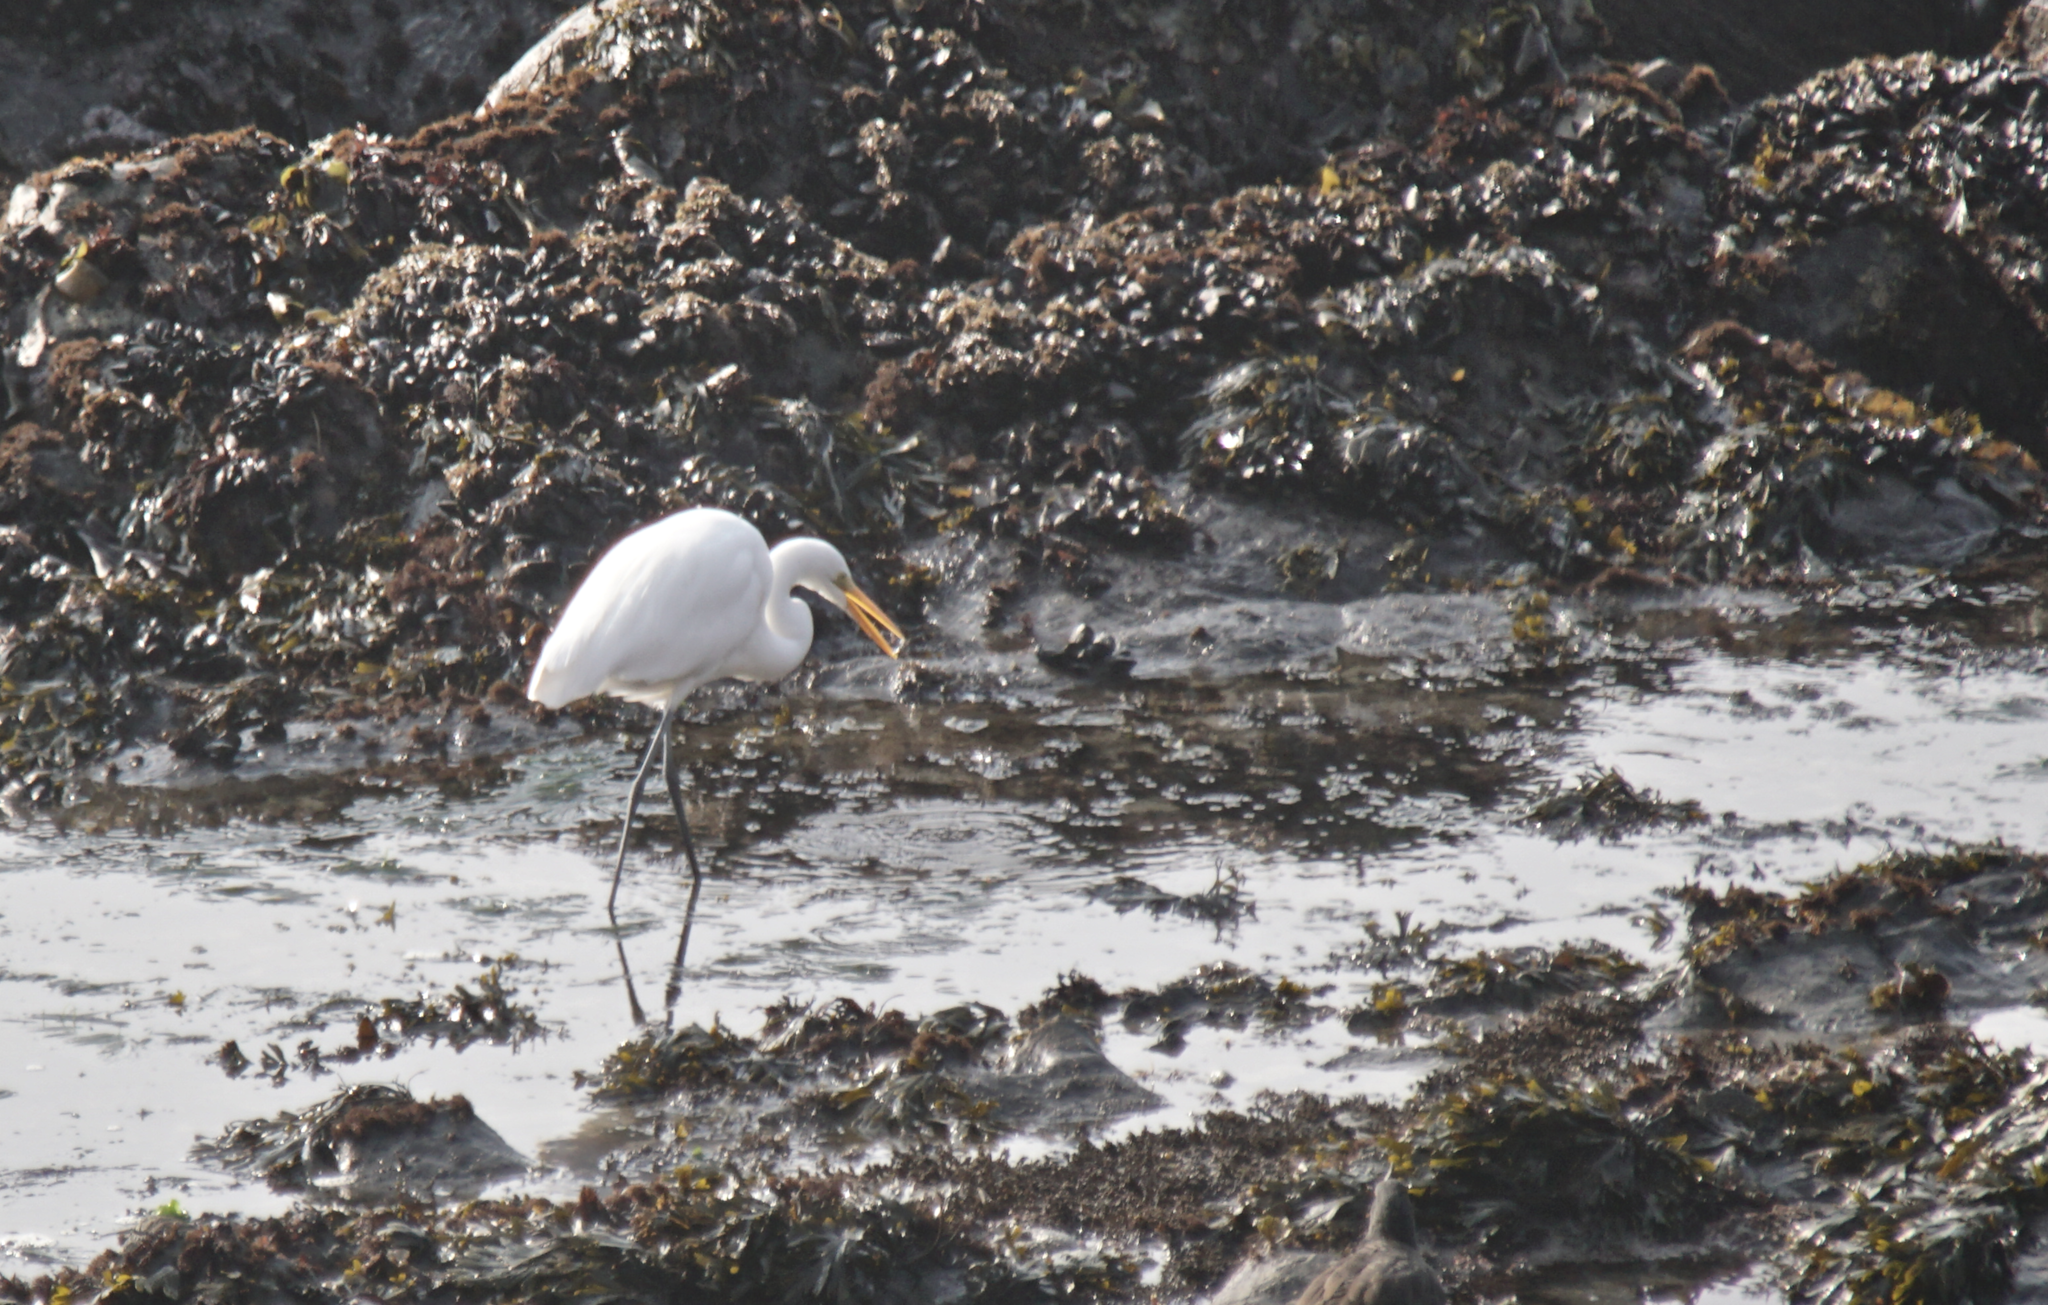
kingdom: Animalia
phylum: Chordata
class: Aves
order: Pelecaniformes
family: Ardeidae
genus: Ardea
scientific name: Ardea alba
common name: Great egret
